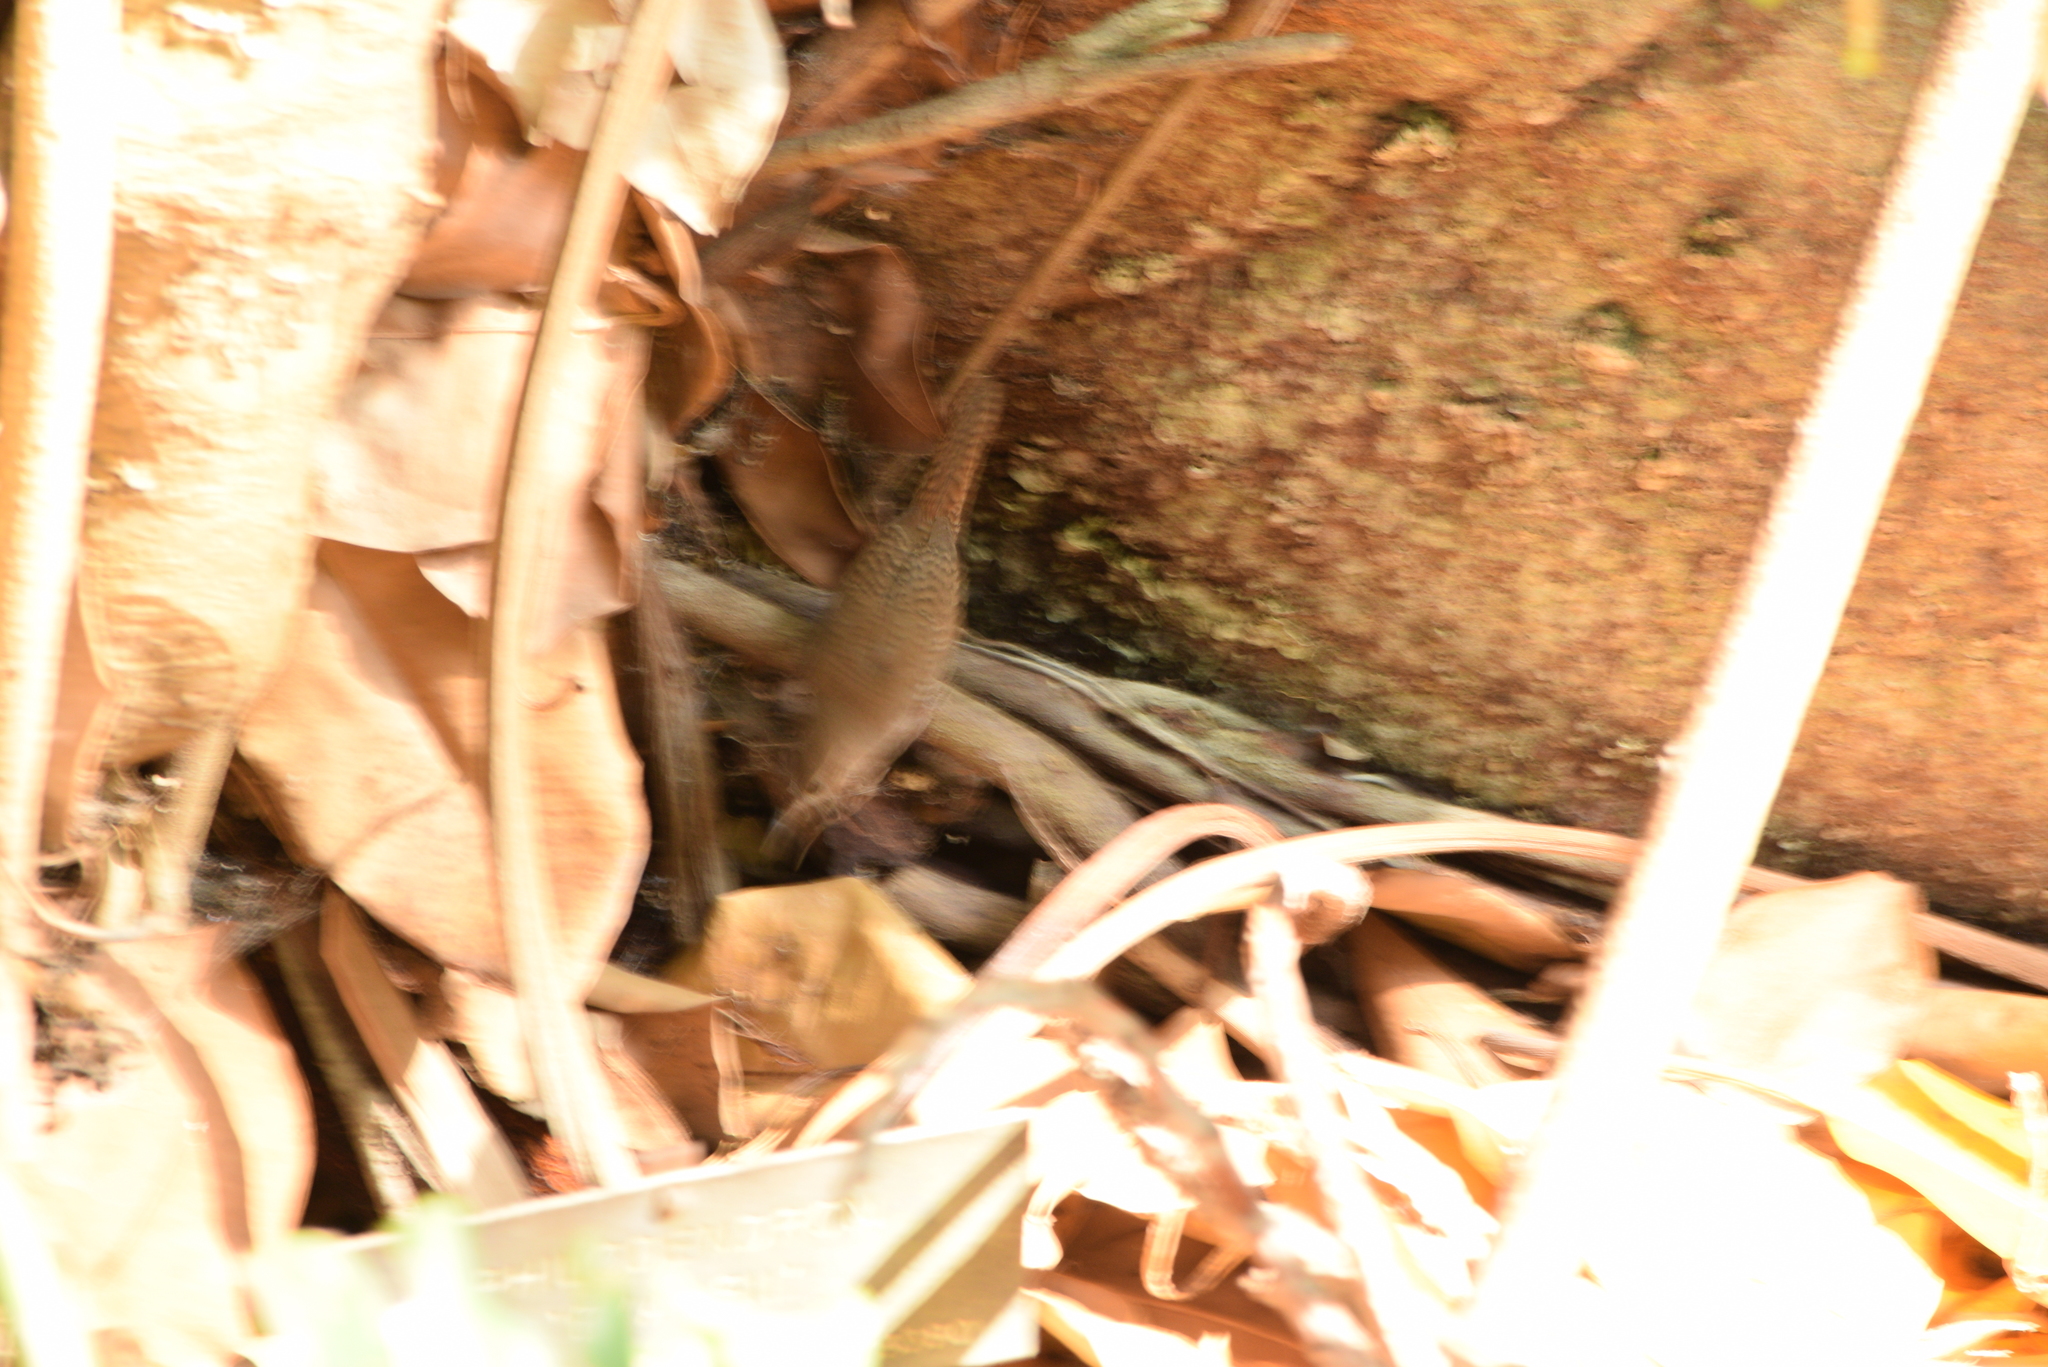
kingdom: Animalia
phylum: Chordata
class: Aves
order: Passeriformes
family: Troglodytidae
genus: Troglodytes
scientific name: Troglodytes aedon
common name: House wren
